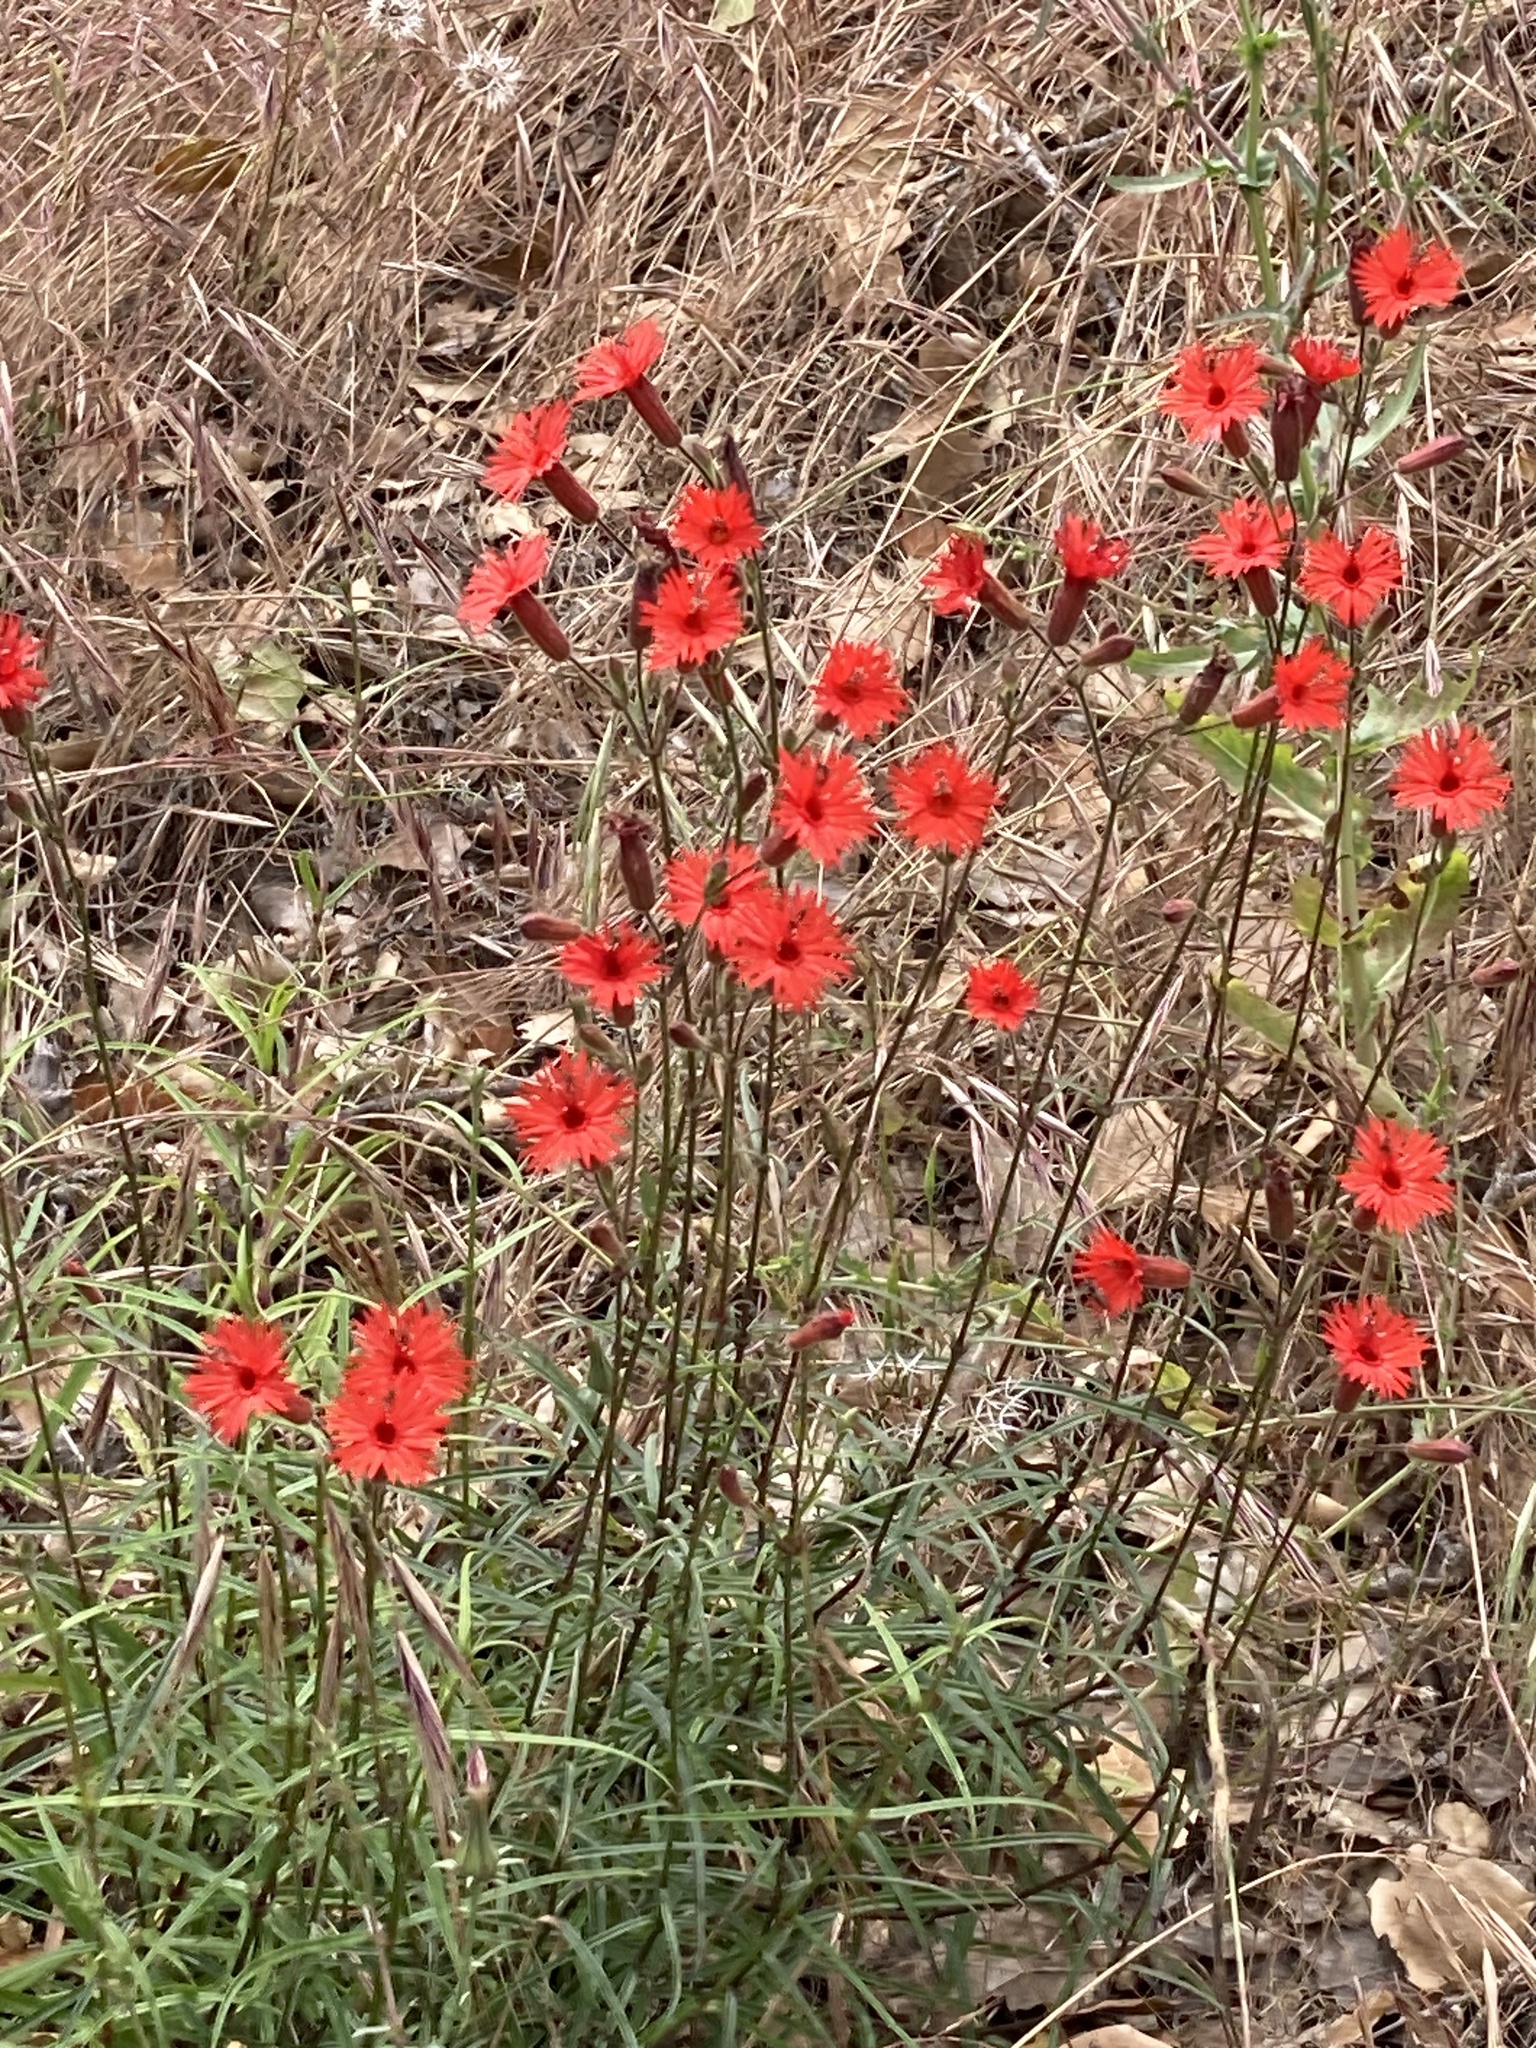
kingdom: Plantae
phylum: Tracheophyta
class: Magnoliopsida
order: Caryophyllales
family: Caryophyllaceae
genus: Silene
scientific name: Silene laciniata
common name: Indian-pink
